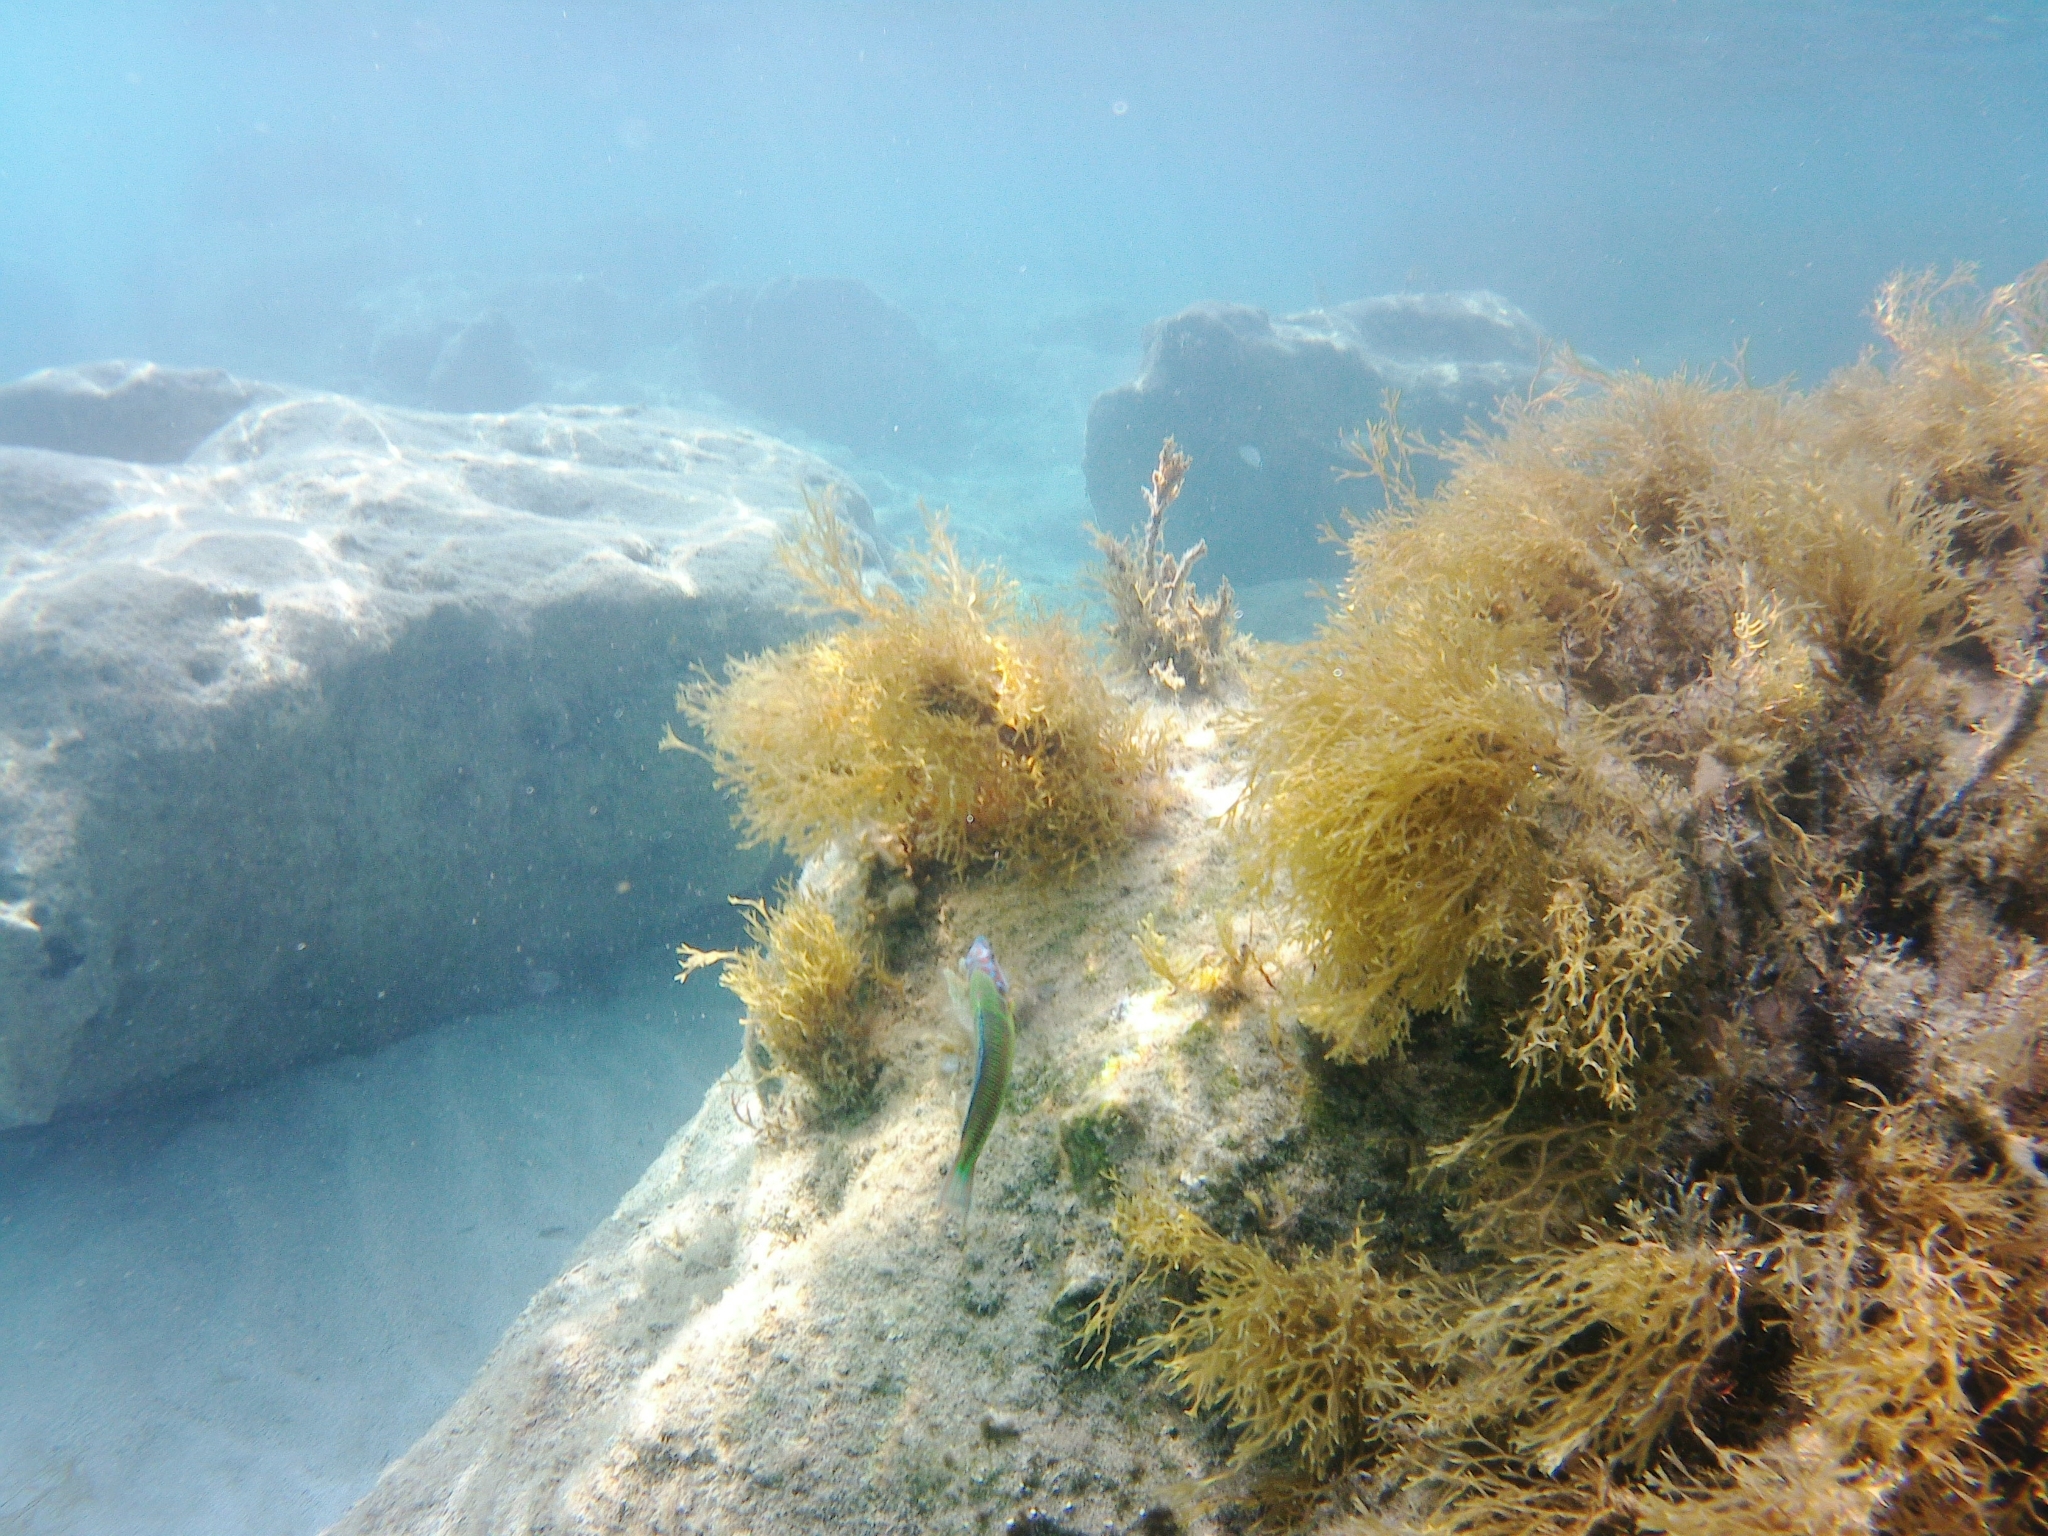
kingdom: Animalia
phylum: Chordata
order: Perciformes
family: Labridae
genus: Thalassoma
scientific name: Thalassoma pavo
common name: Ornate wrasse
